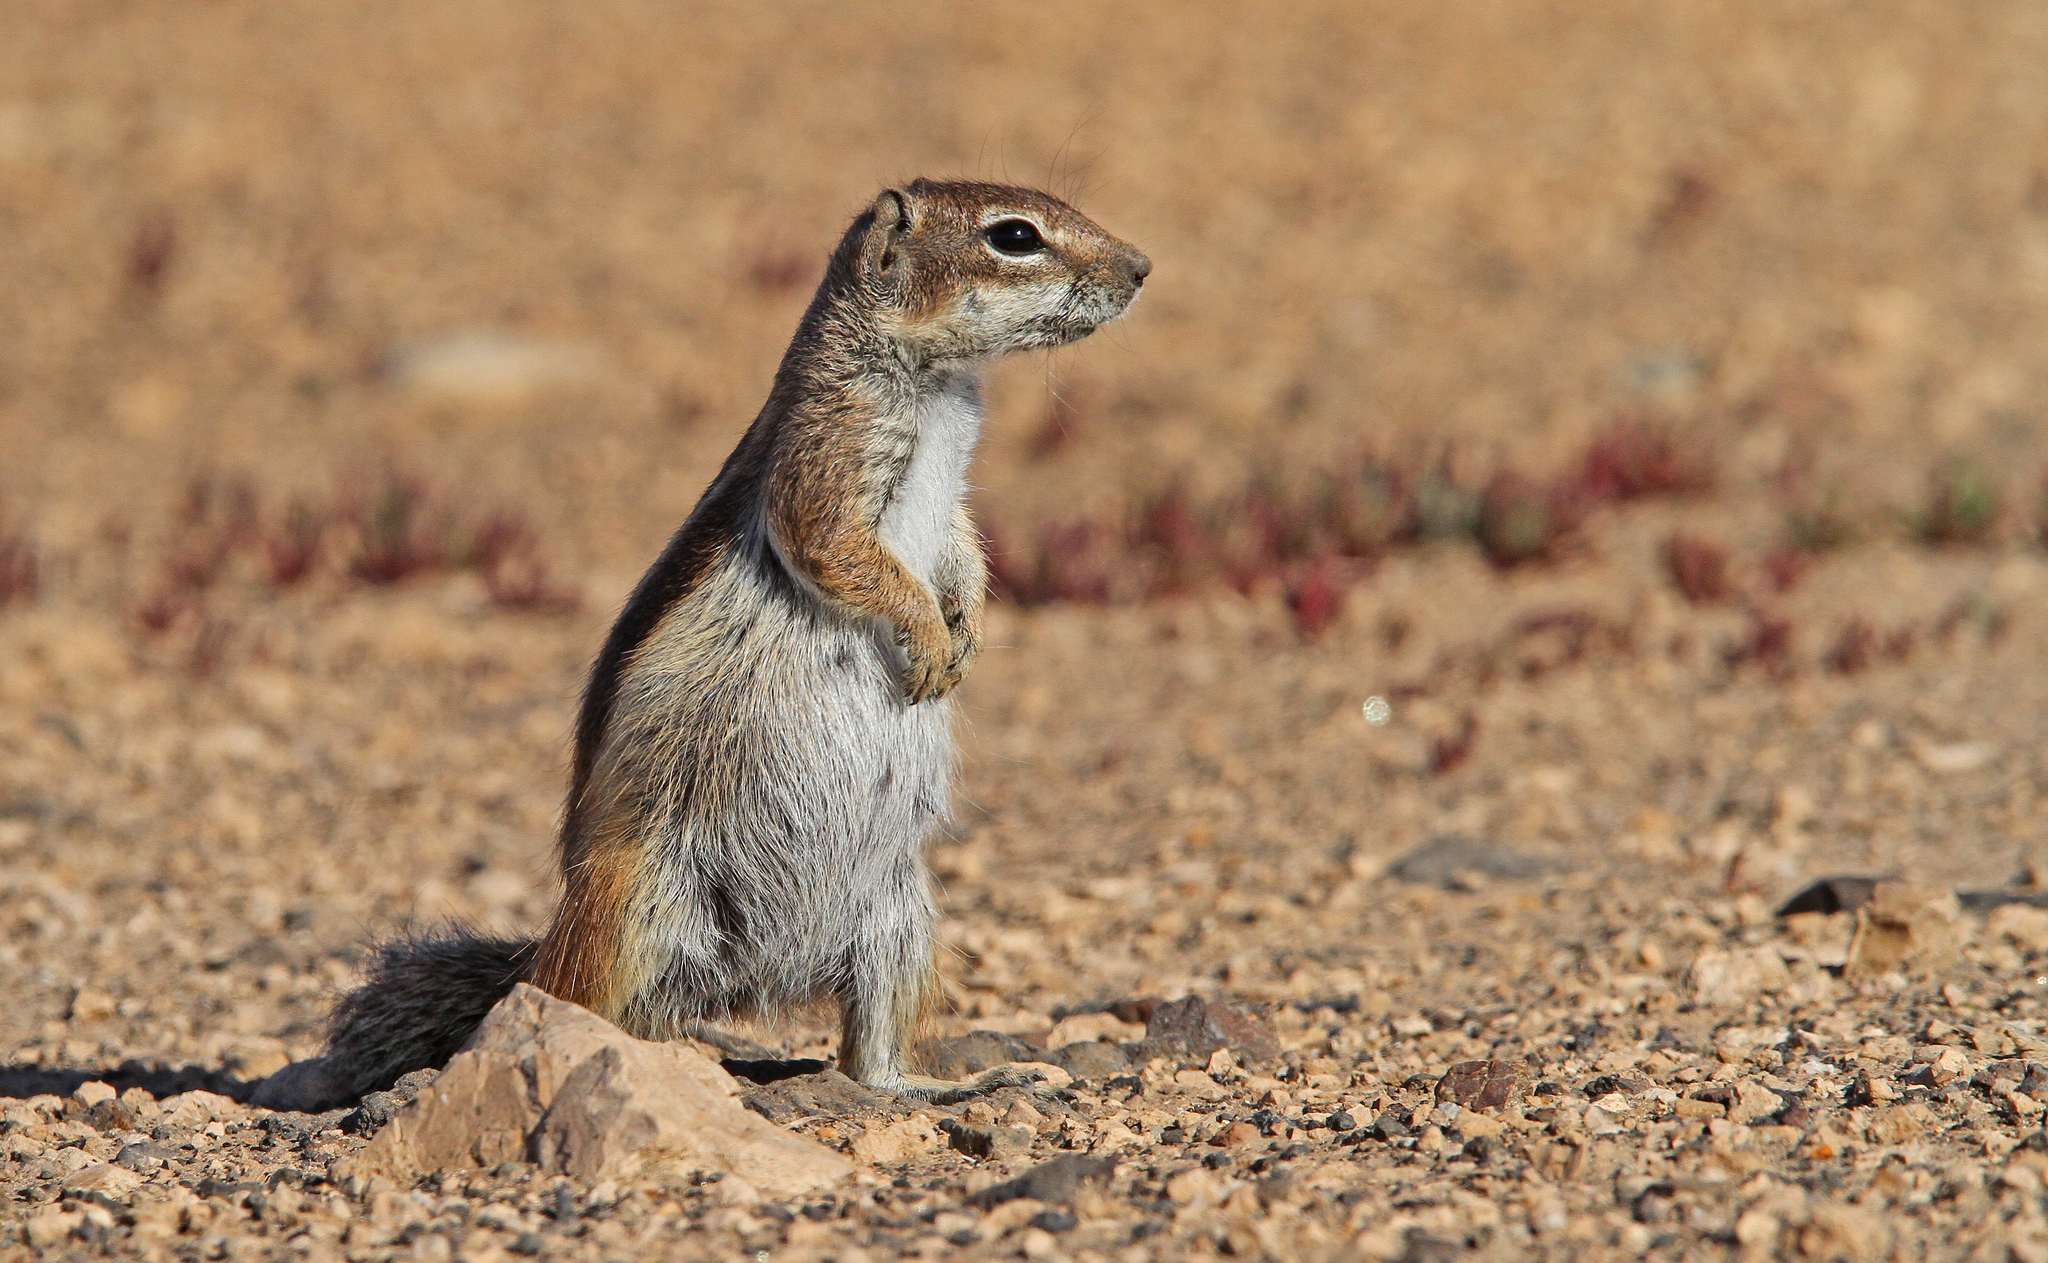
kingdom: Animalia
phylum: Chordata
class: Mammalia
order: Rodentia
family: Sciuridae
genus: Atlantoxerus
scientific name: Atlantoxerus getulus
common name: Barbary ground squirrel
